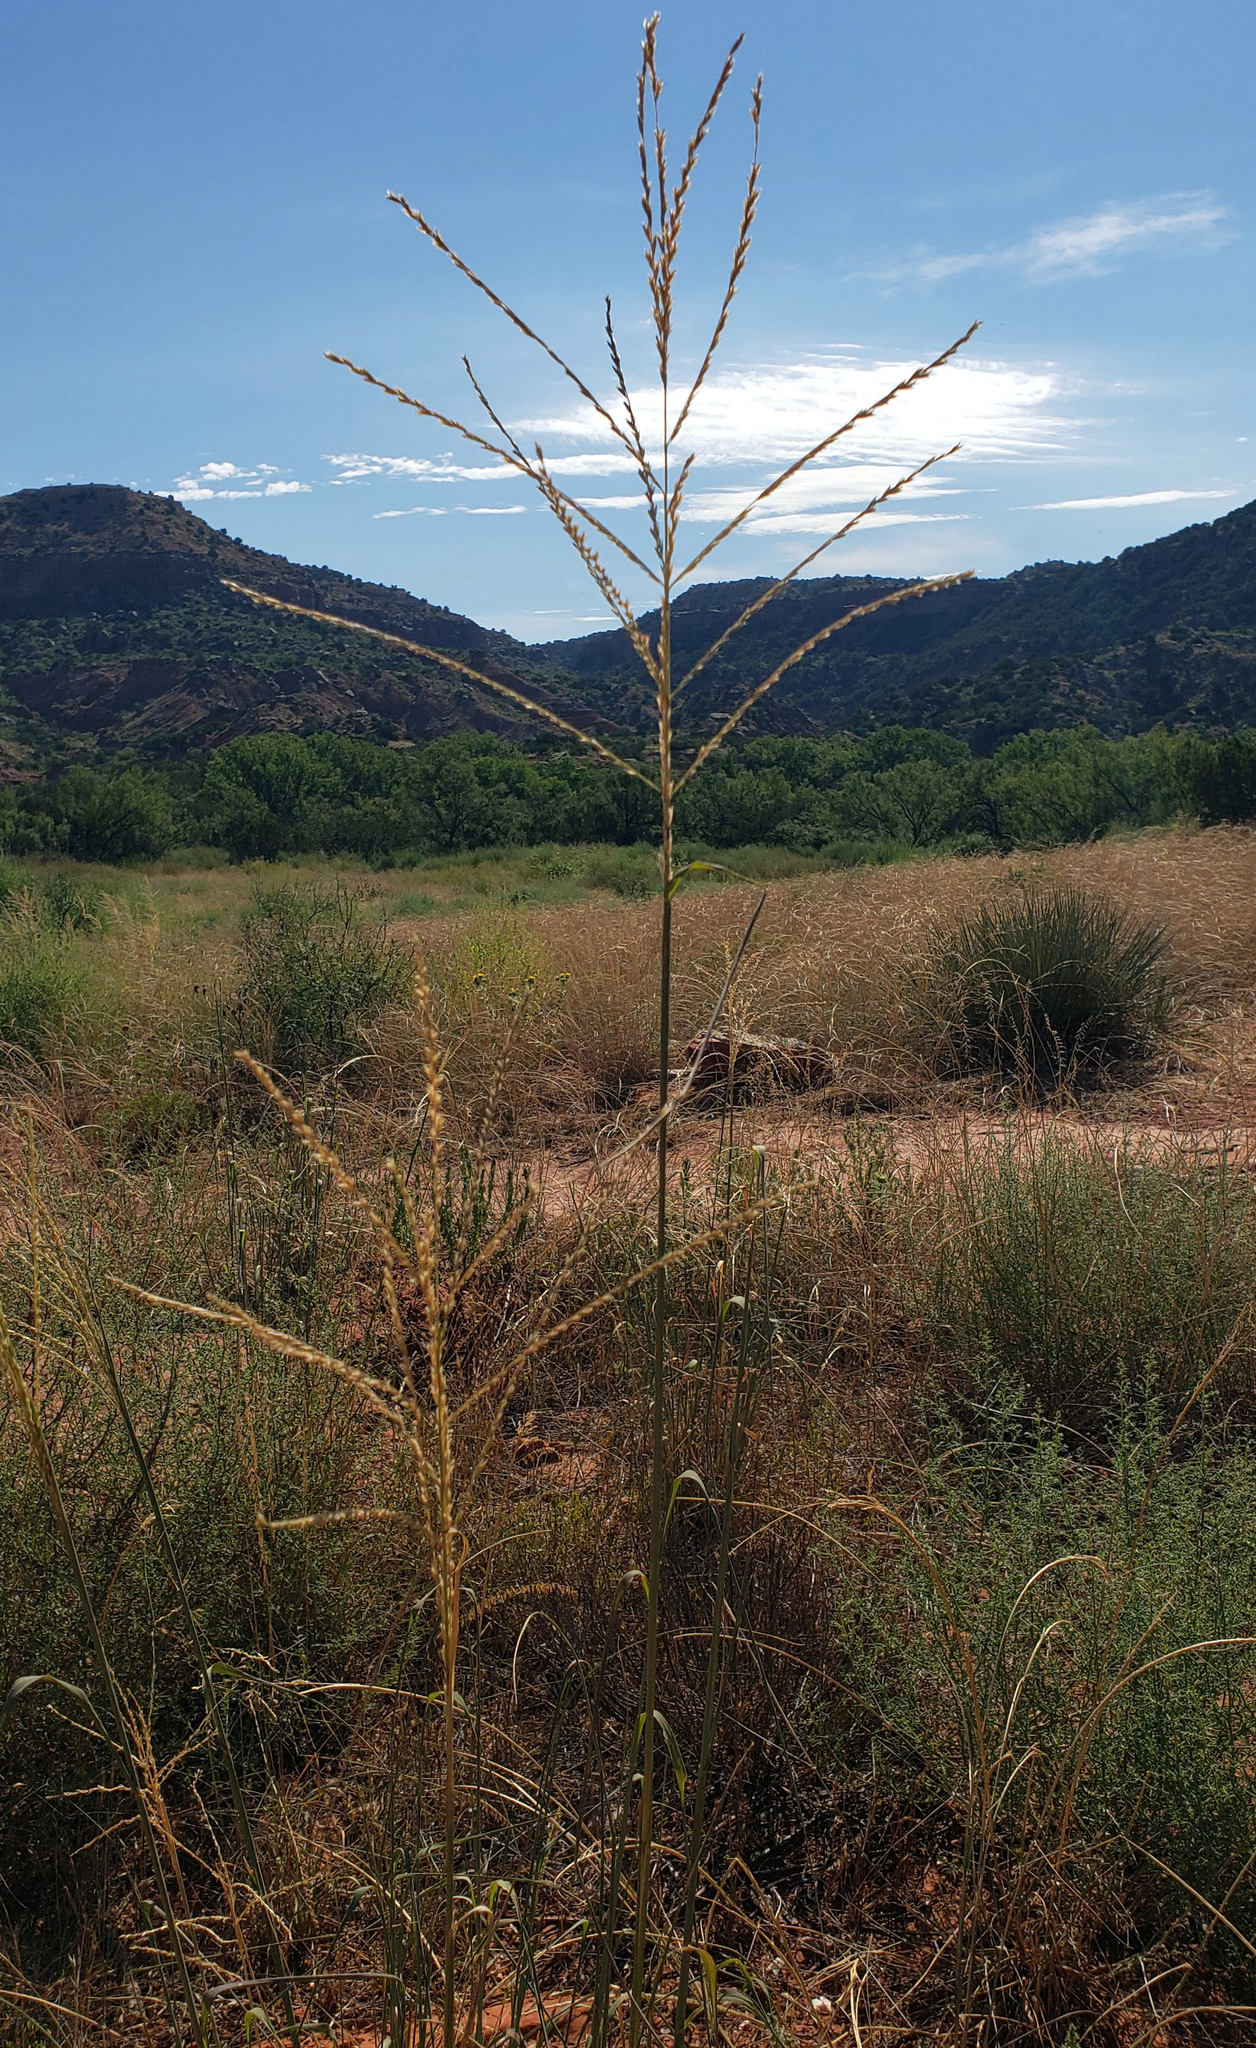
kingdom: Plantae
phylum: Tracheophyta
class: Liliopsida
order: Poales
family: Poaceae
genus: Disakisperma
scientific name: Disakisperma dubium
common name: Green sprangletop
